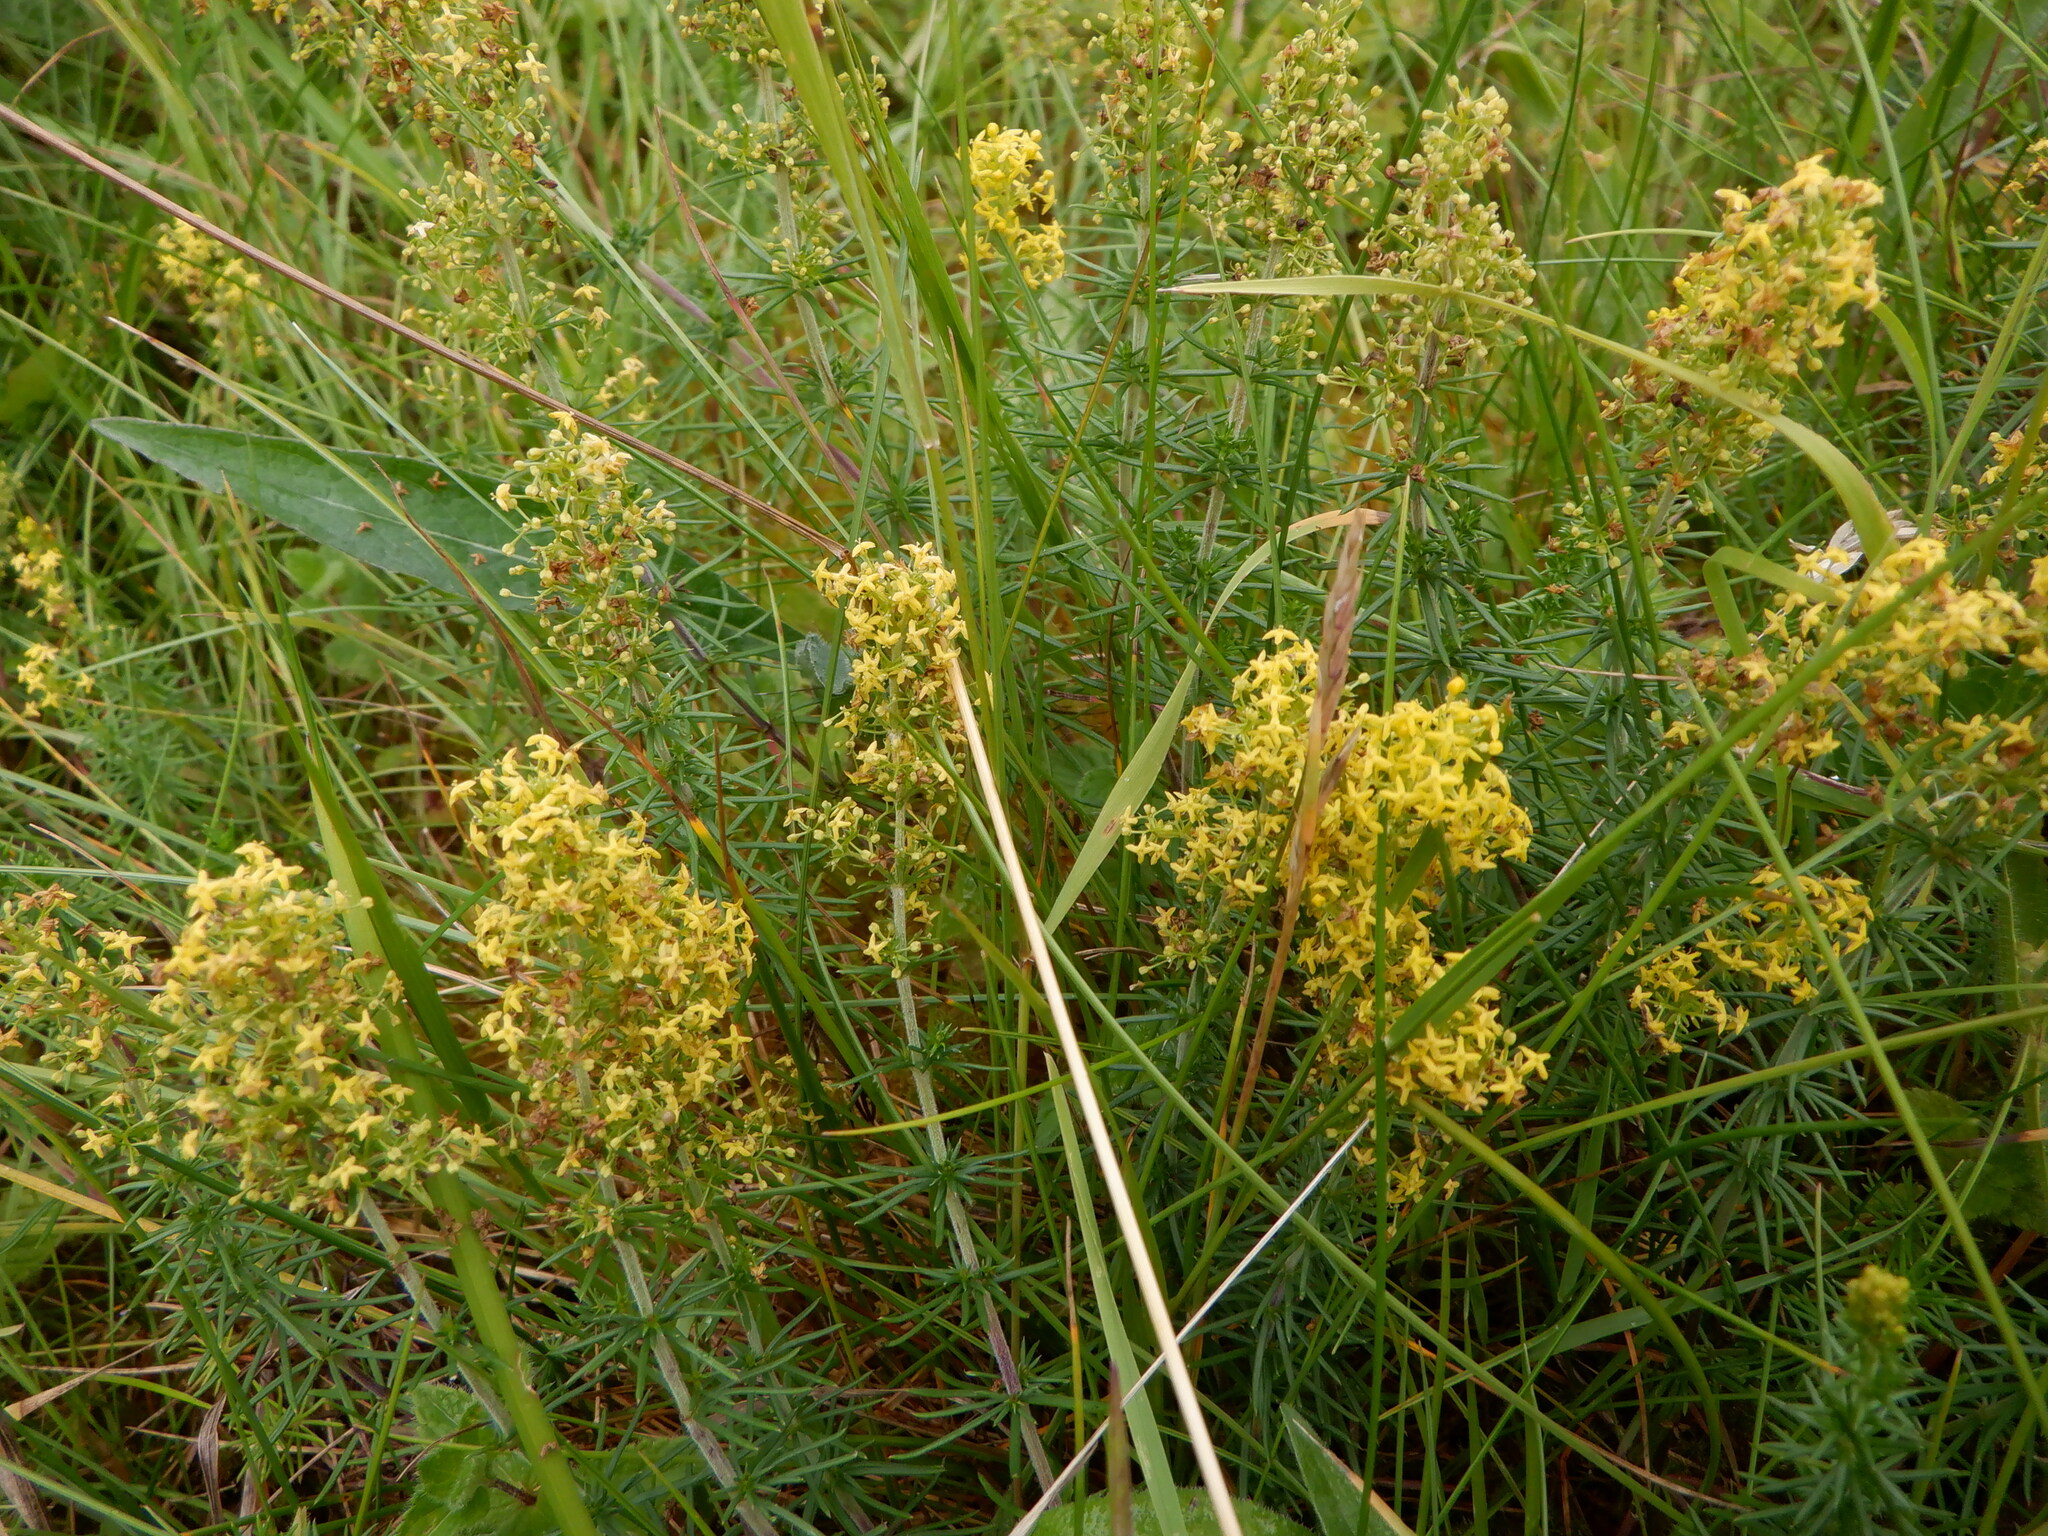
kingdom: Plantae
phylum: Tracheophyta
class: Magnoliopsida
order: Gentianales
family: Rubiaceae
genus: Galium
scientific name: Galium verum
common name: Lady's bedstraw
